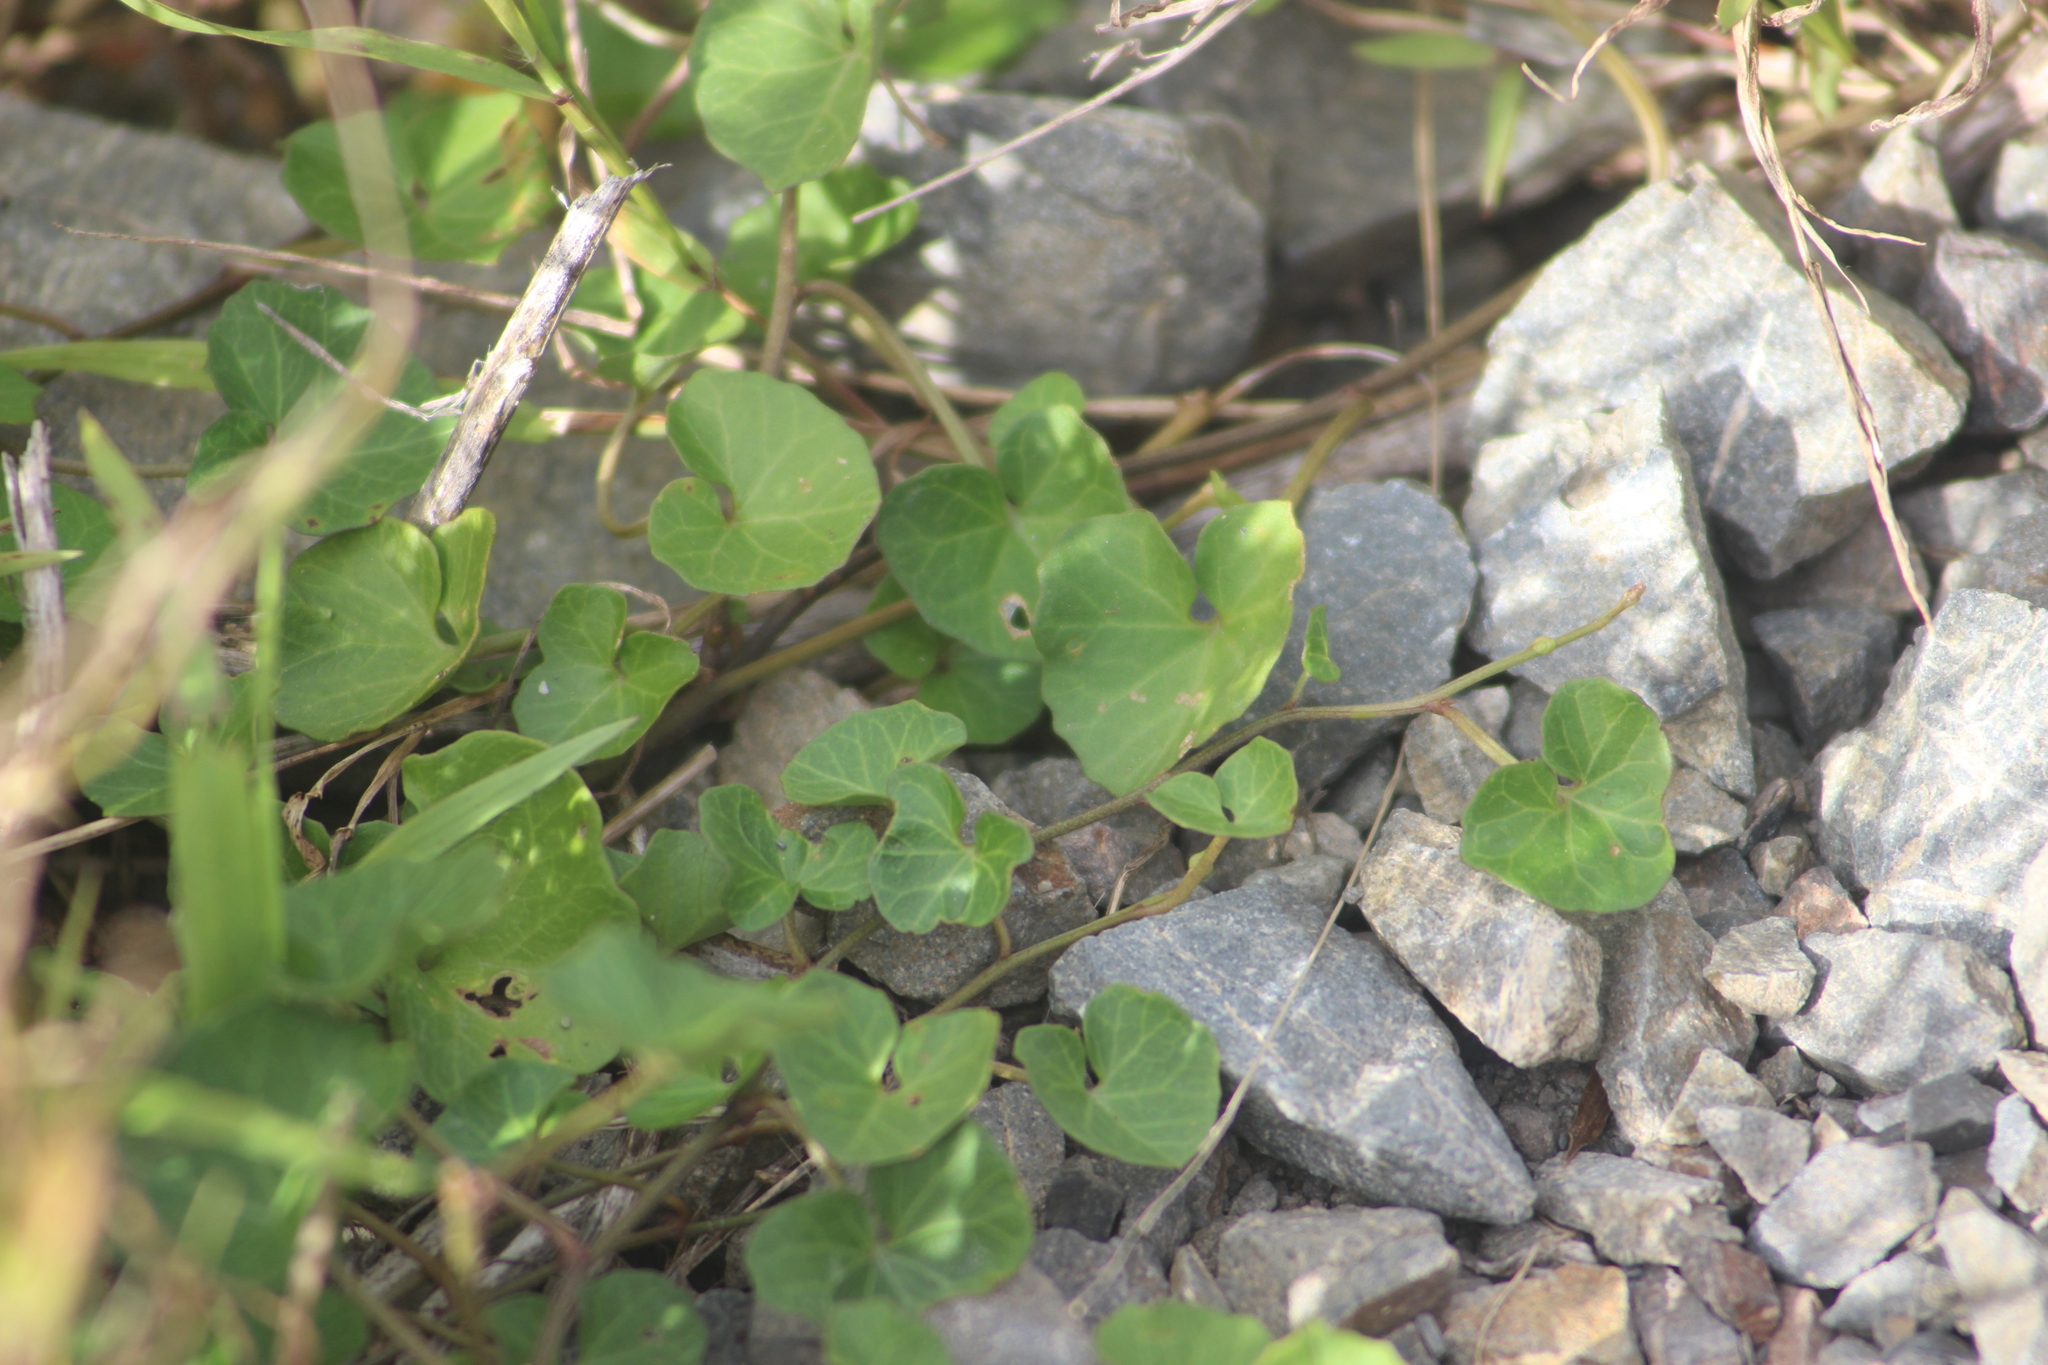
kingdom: Plantae
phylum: Tracheophyta
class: Magnoliopsida
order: Solanales
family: Convolvulaceae
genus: Calystegia
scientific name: Calystegia tuguriorum
